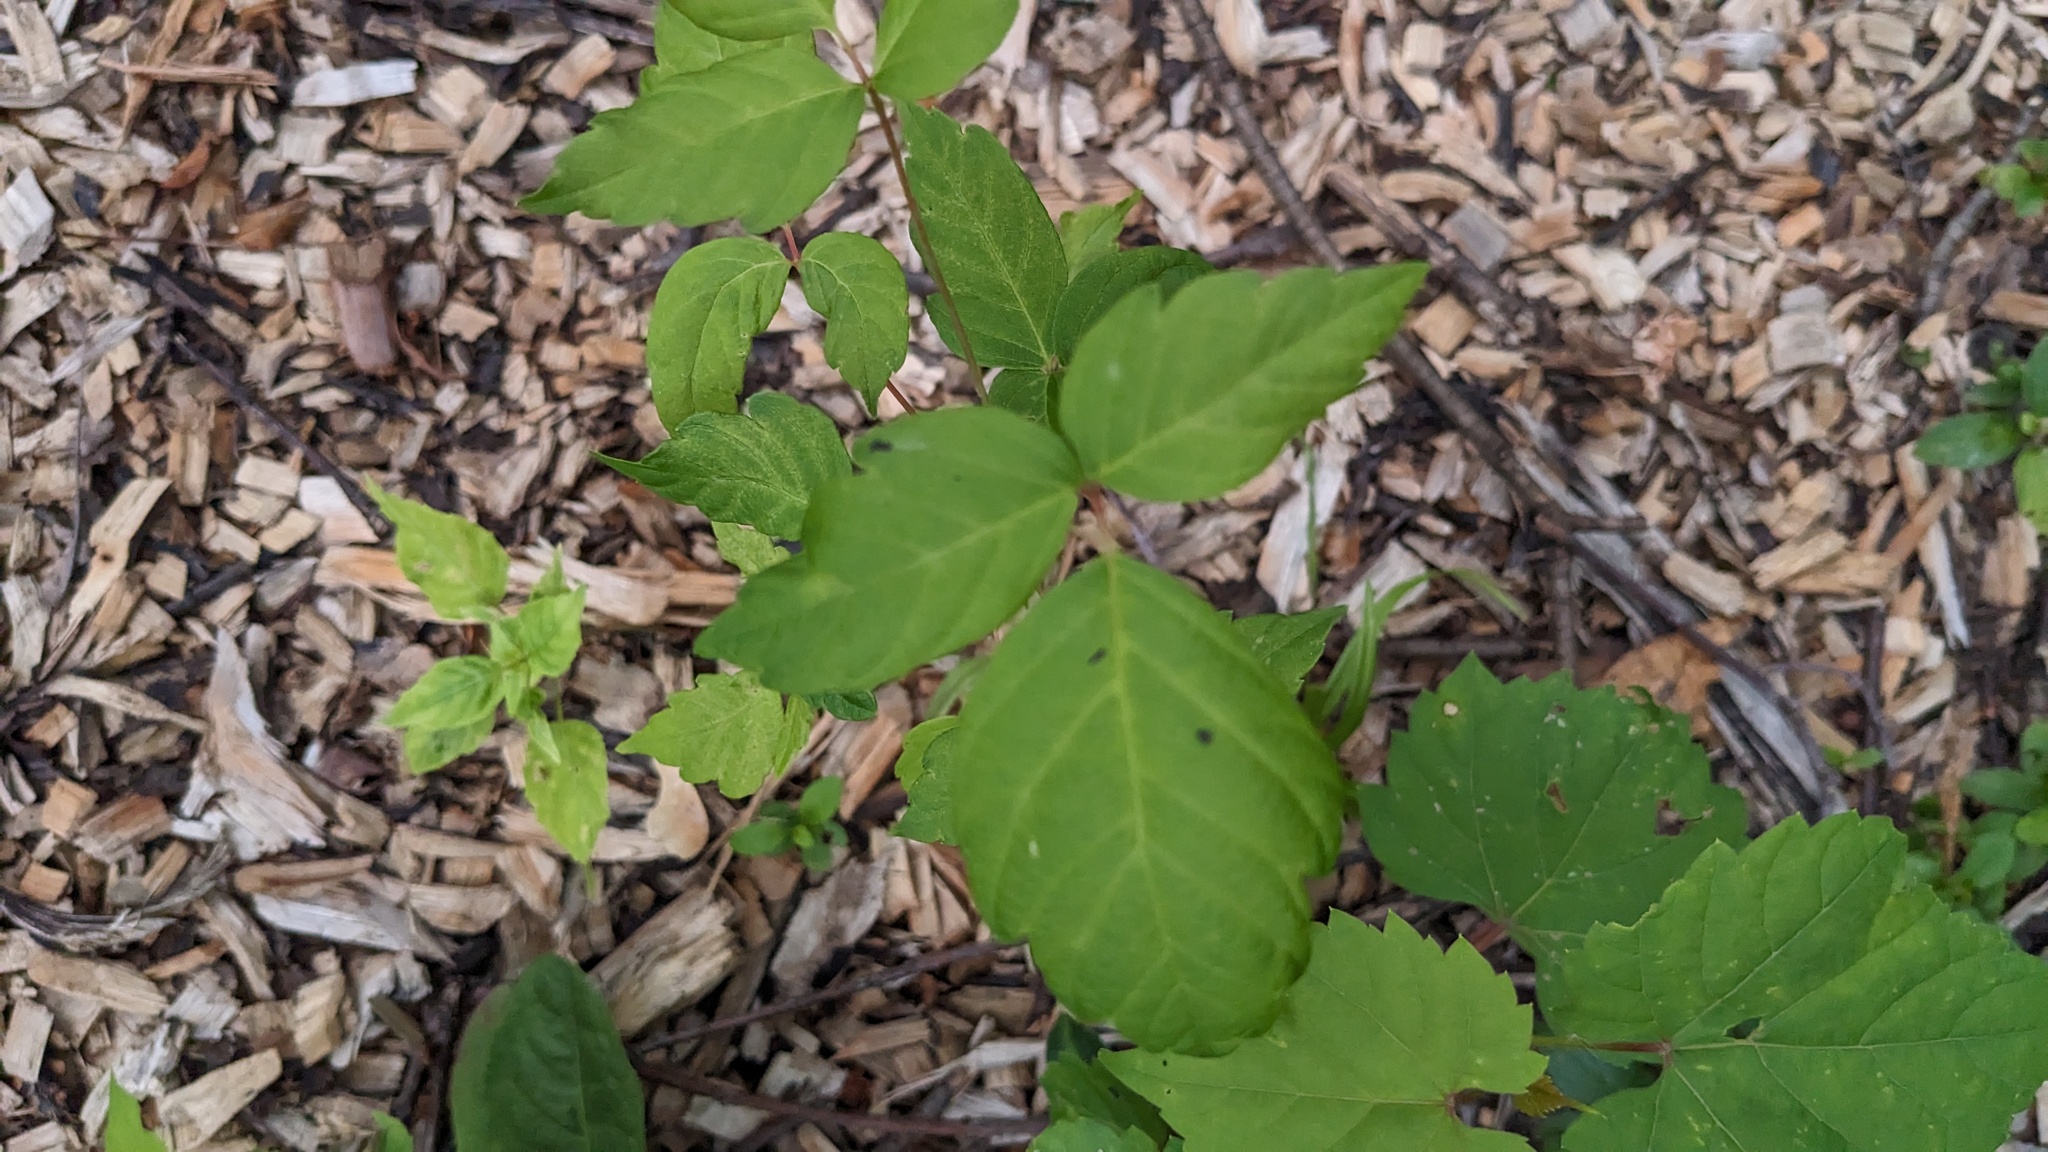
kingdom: Plantae
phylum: Tracheophyta
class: Magnoliopsida
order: Sapindales
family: Sapindaceae
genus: Acer
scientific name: Acer negundo
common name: Ashleaf maple
